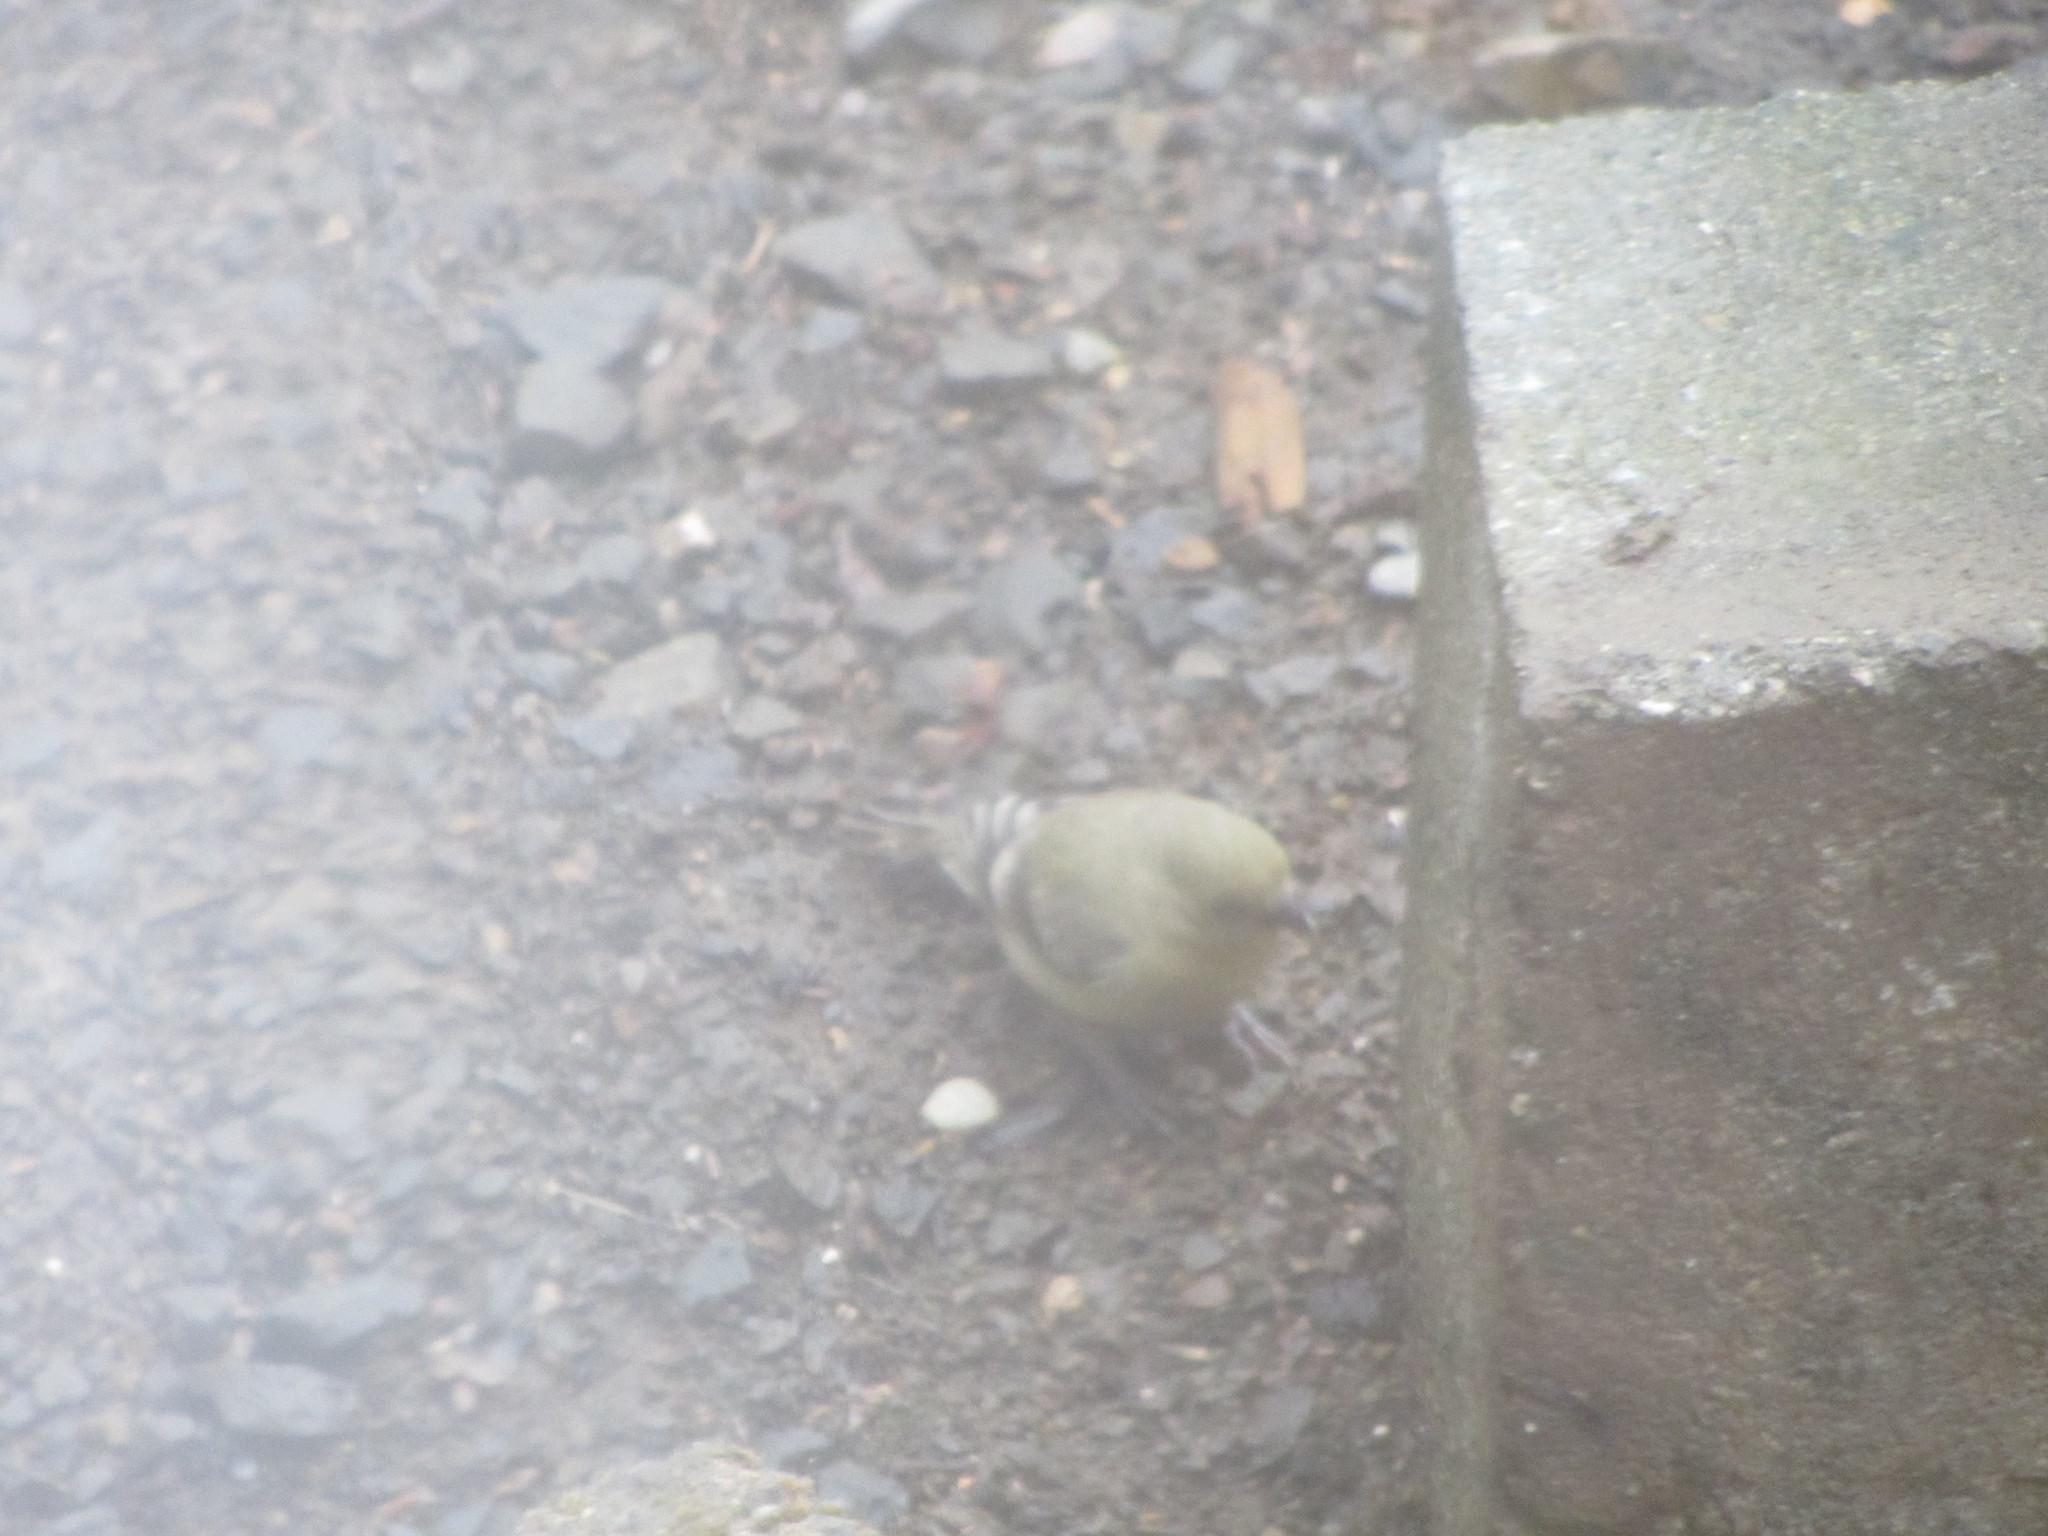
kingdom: Animalia
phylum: Chordata
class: Aves
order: Passeriformes
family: Fringillidae
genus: Spinus
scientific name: Spinus psaltria
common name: Lesser goldfinch
